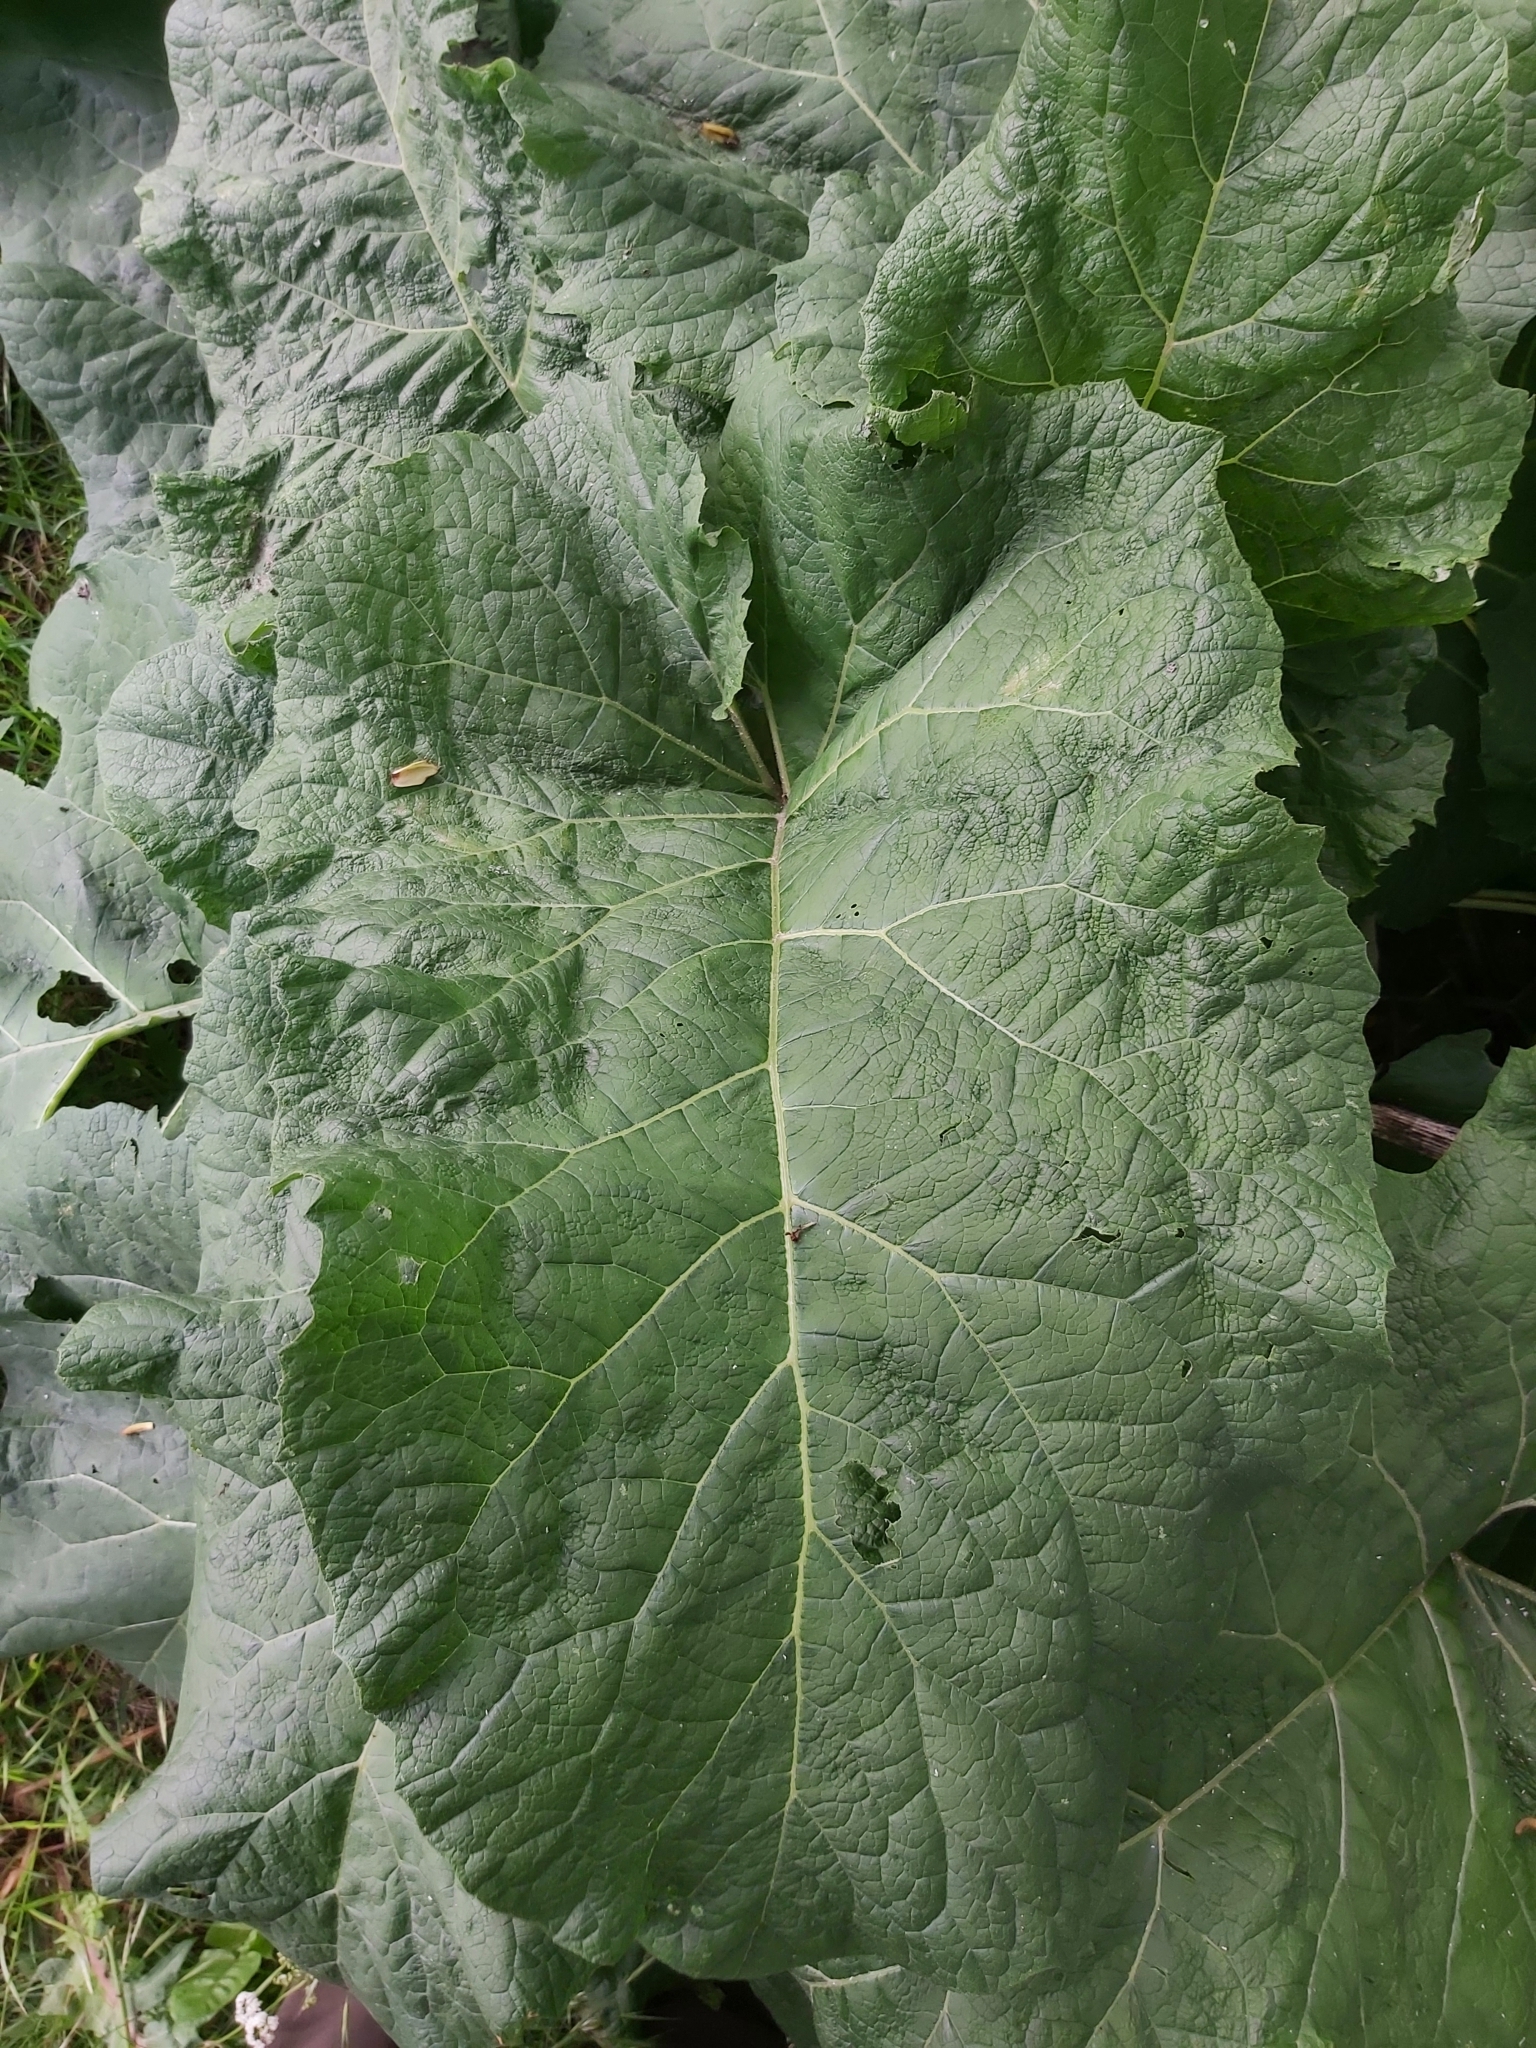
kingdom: Plantae
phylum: Tracheophyta
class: Magnoliopsida
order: Asterales
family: Asteraceae
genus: Arctium
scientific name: Arctium
